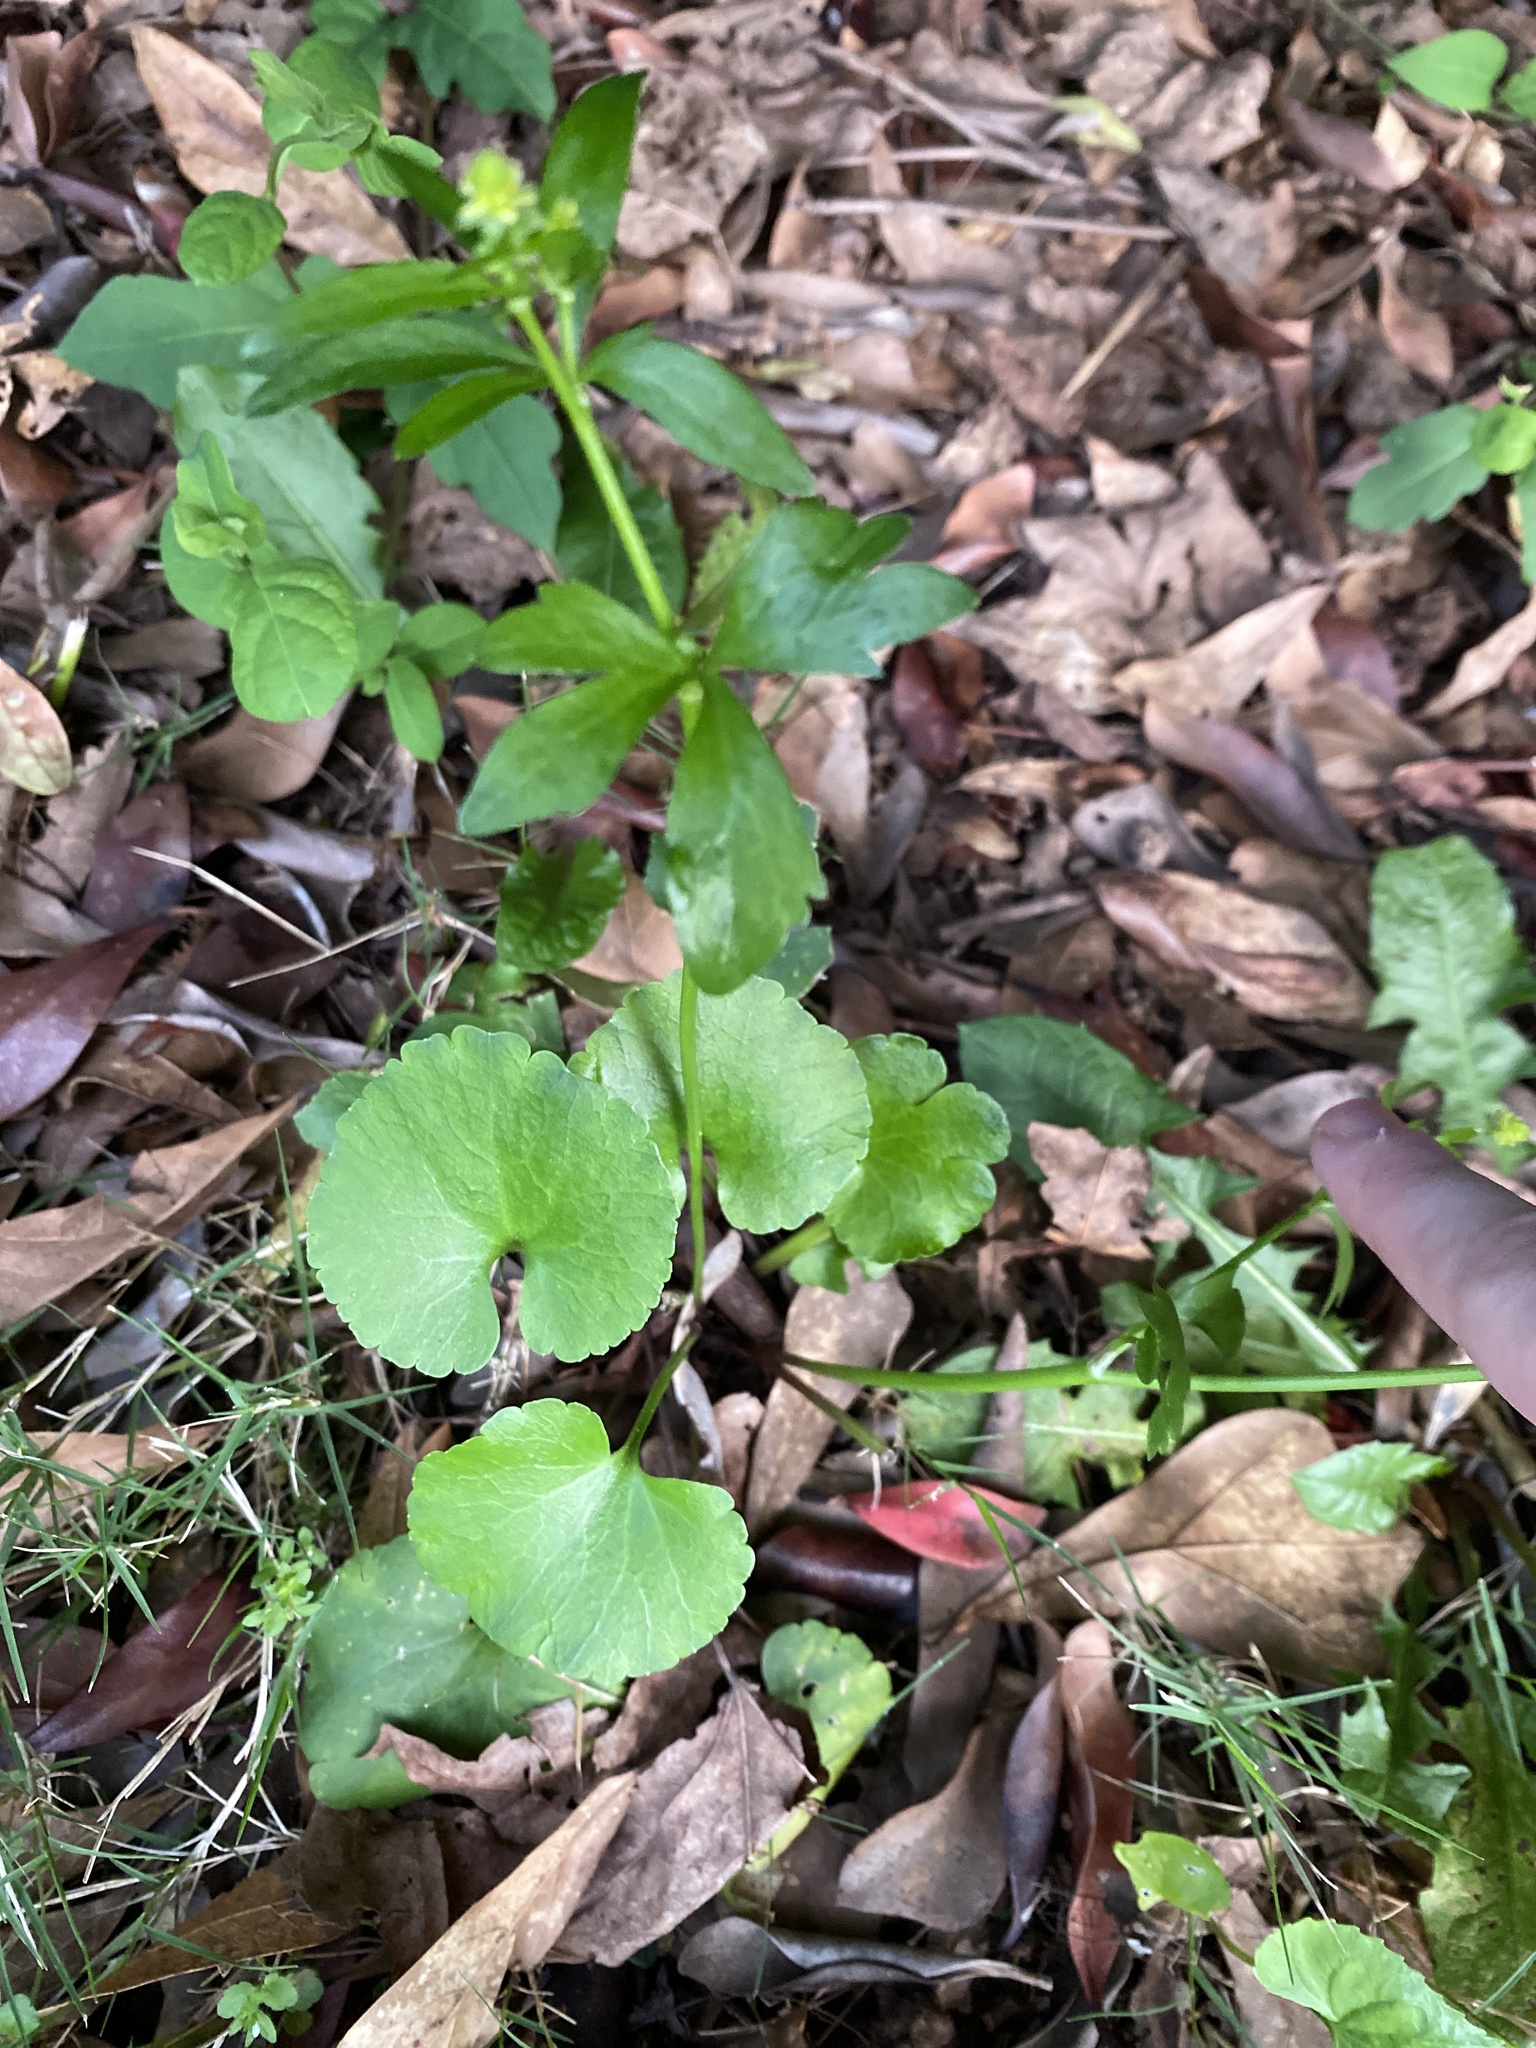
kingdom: Plantae
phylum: Tracheophyta
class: Magnoliopsida
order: Ranunculales
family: Ranunculaceae
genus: Ranunculus
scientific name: Ranunculus abortivus
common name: Early wood buttercup
